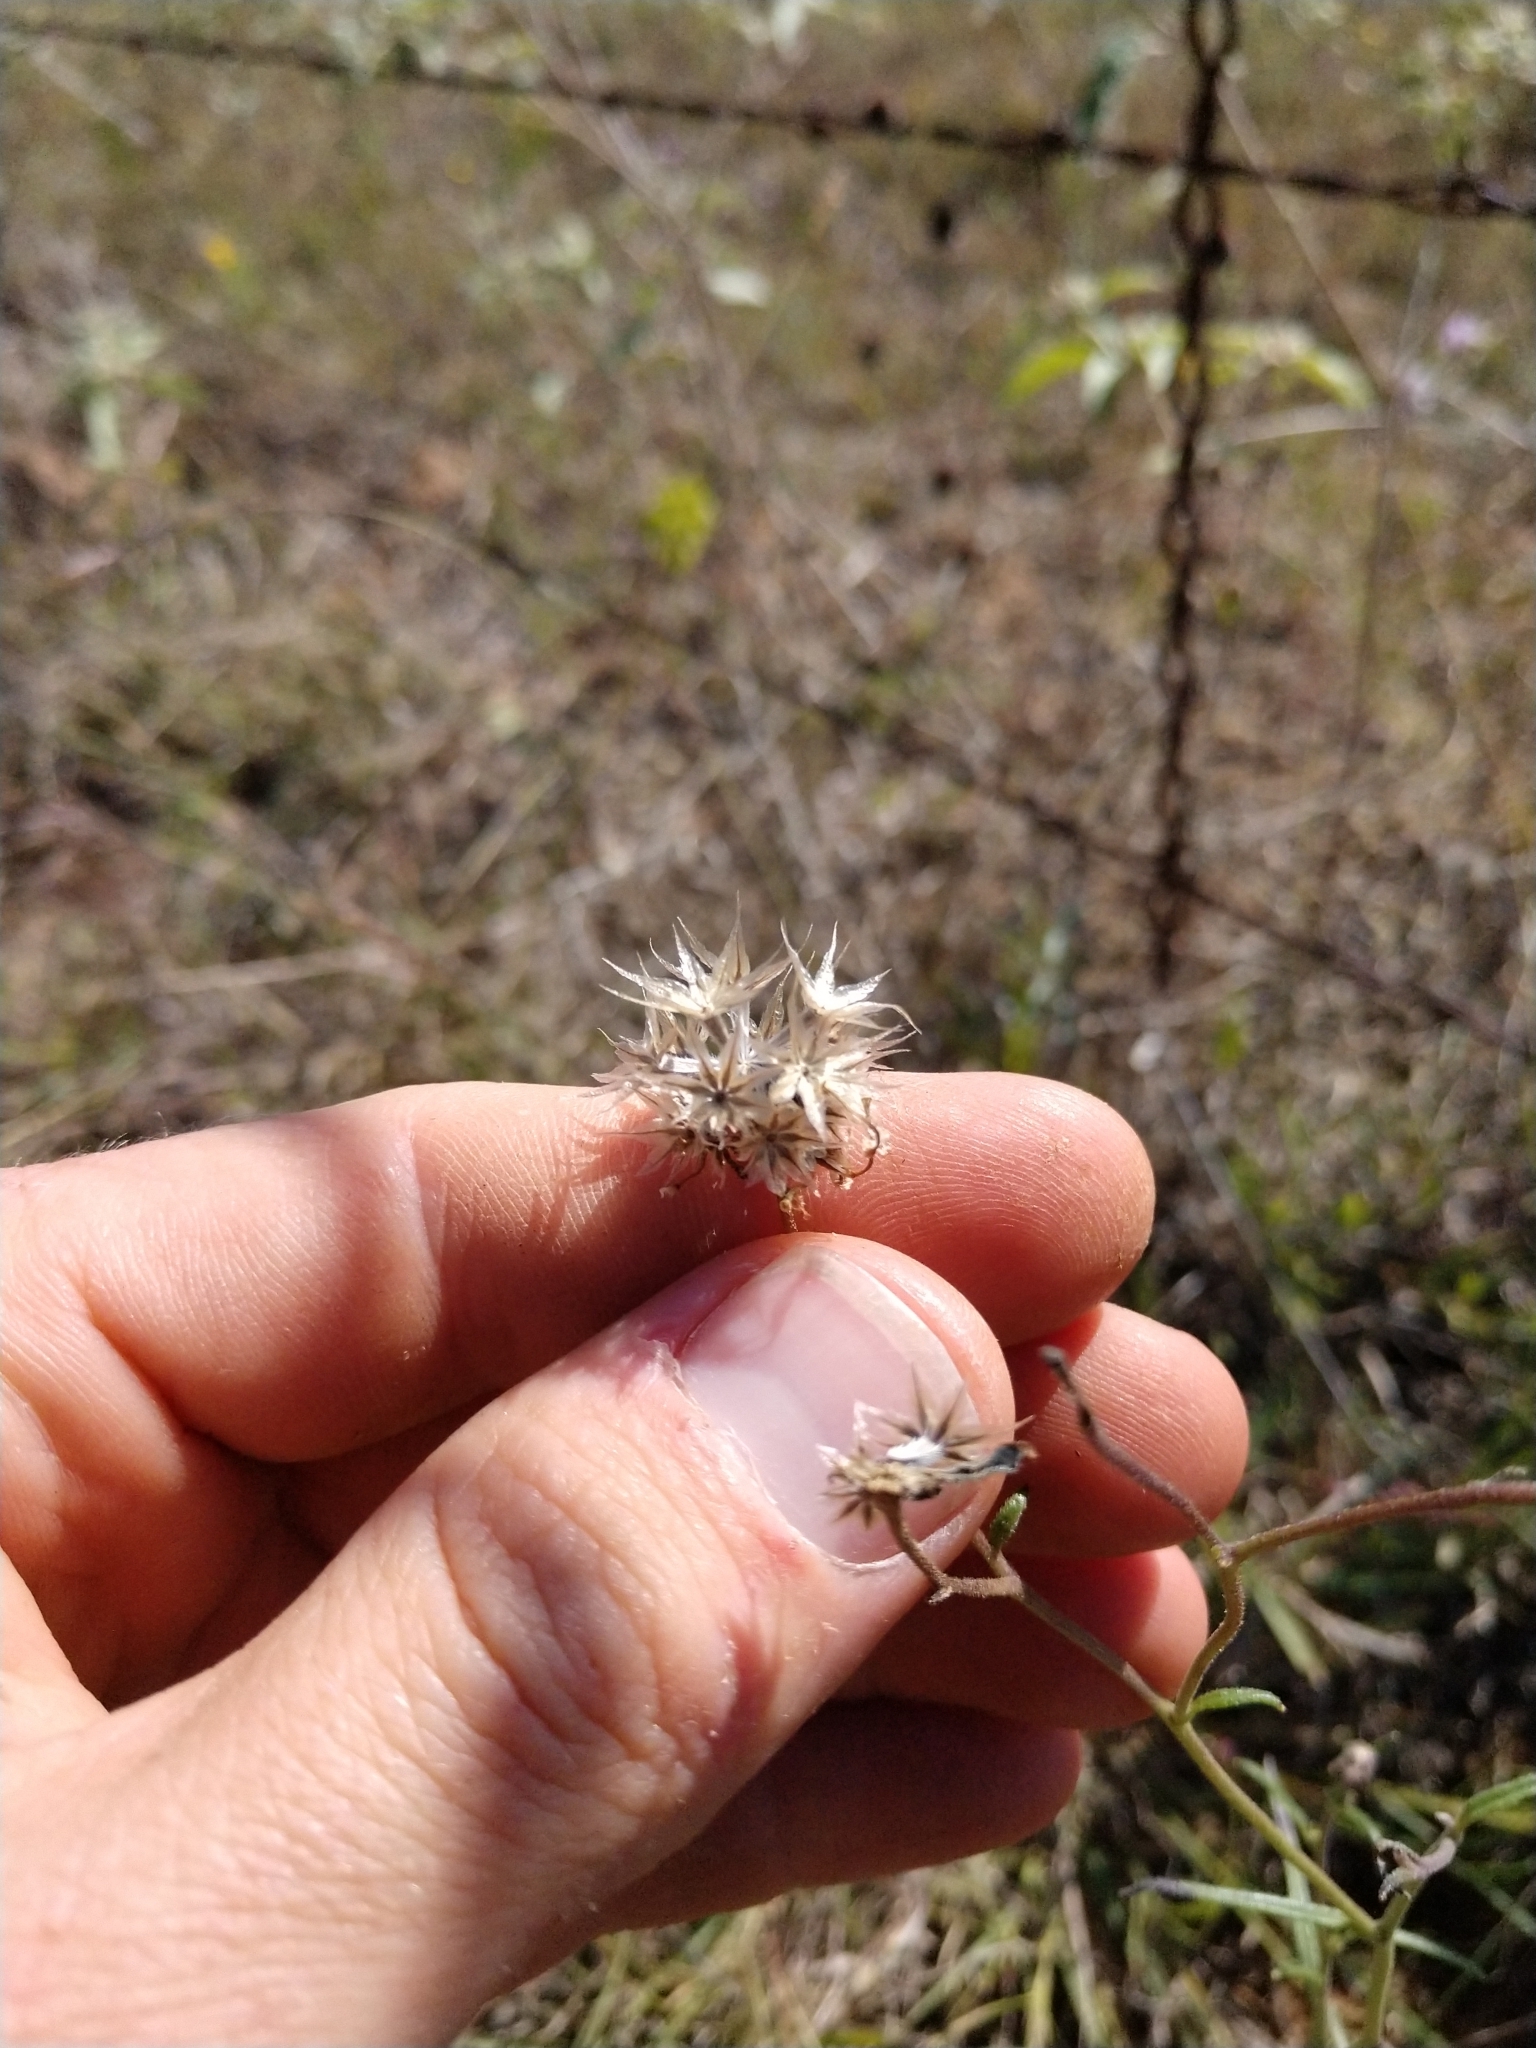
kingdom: Plantae
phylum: Tracheophyta
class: Magnoliopsida
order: Asterales
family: Asteraceae
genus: Palafoxia
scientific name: Palafoxia rosea
